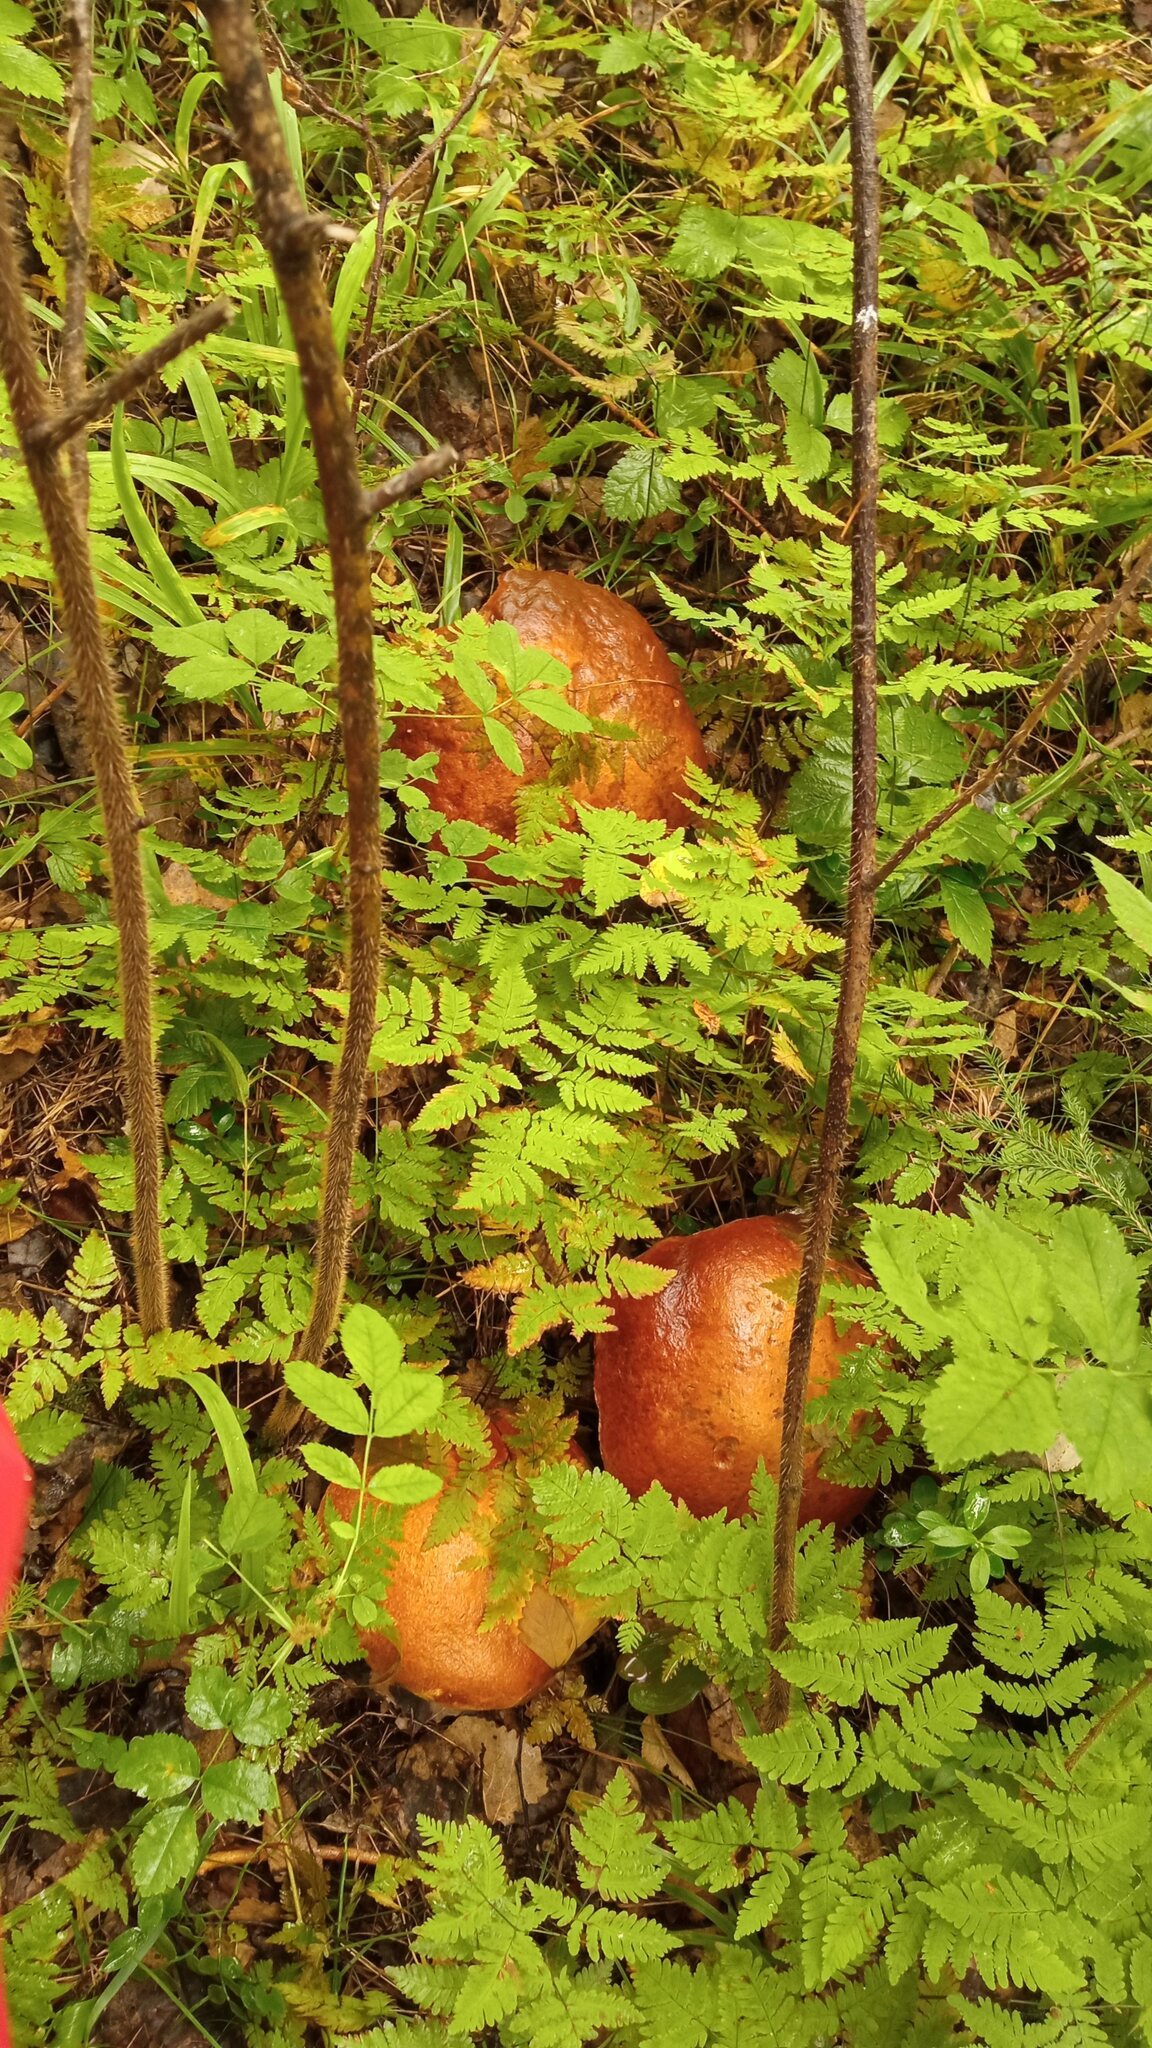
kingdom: Fungi
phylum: Basidiomycota
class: Agaricomycetes
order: Boletales
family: Boletaceae
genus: Leccinum
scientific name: Leccinum versipelle
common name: Orange birch bolete
